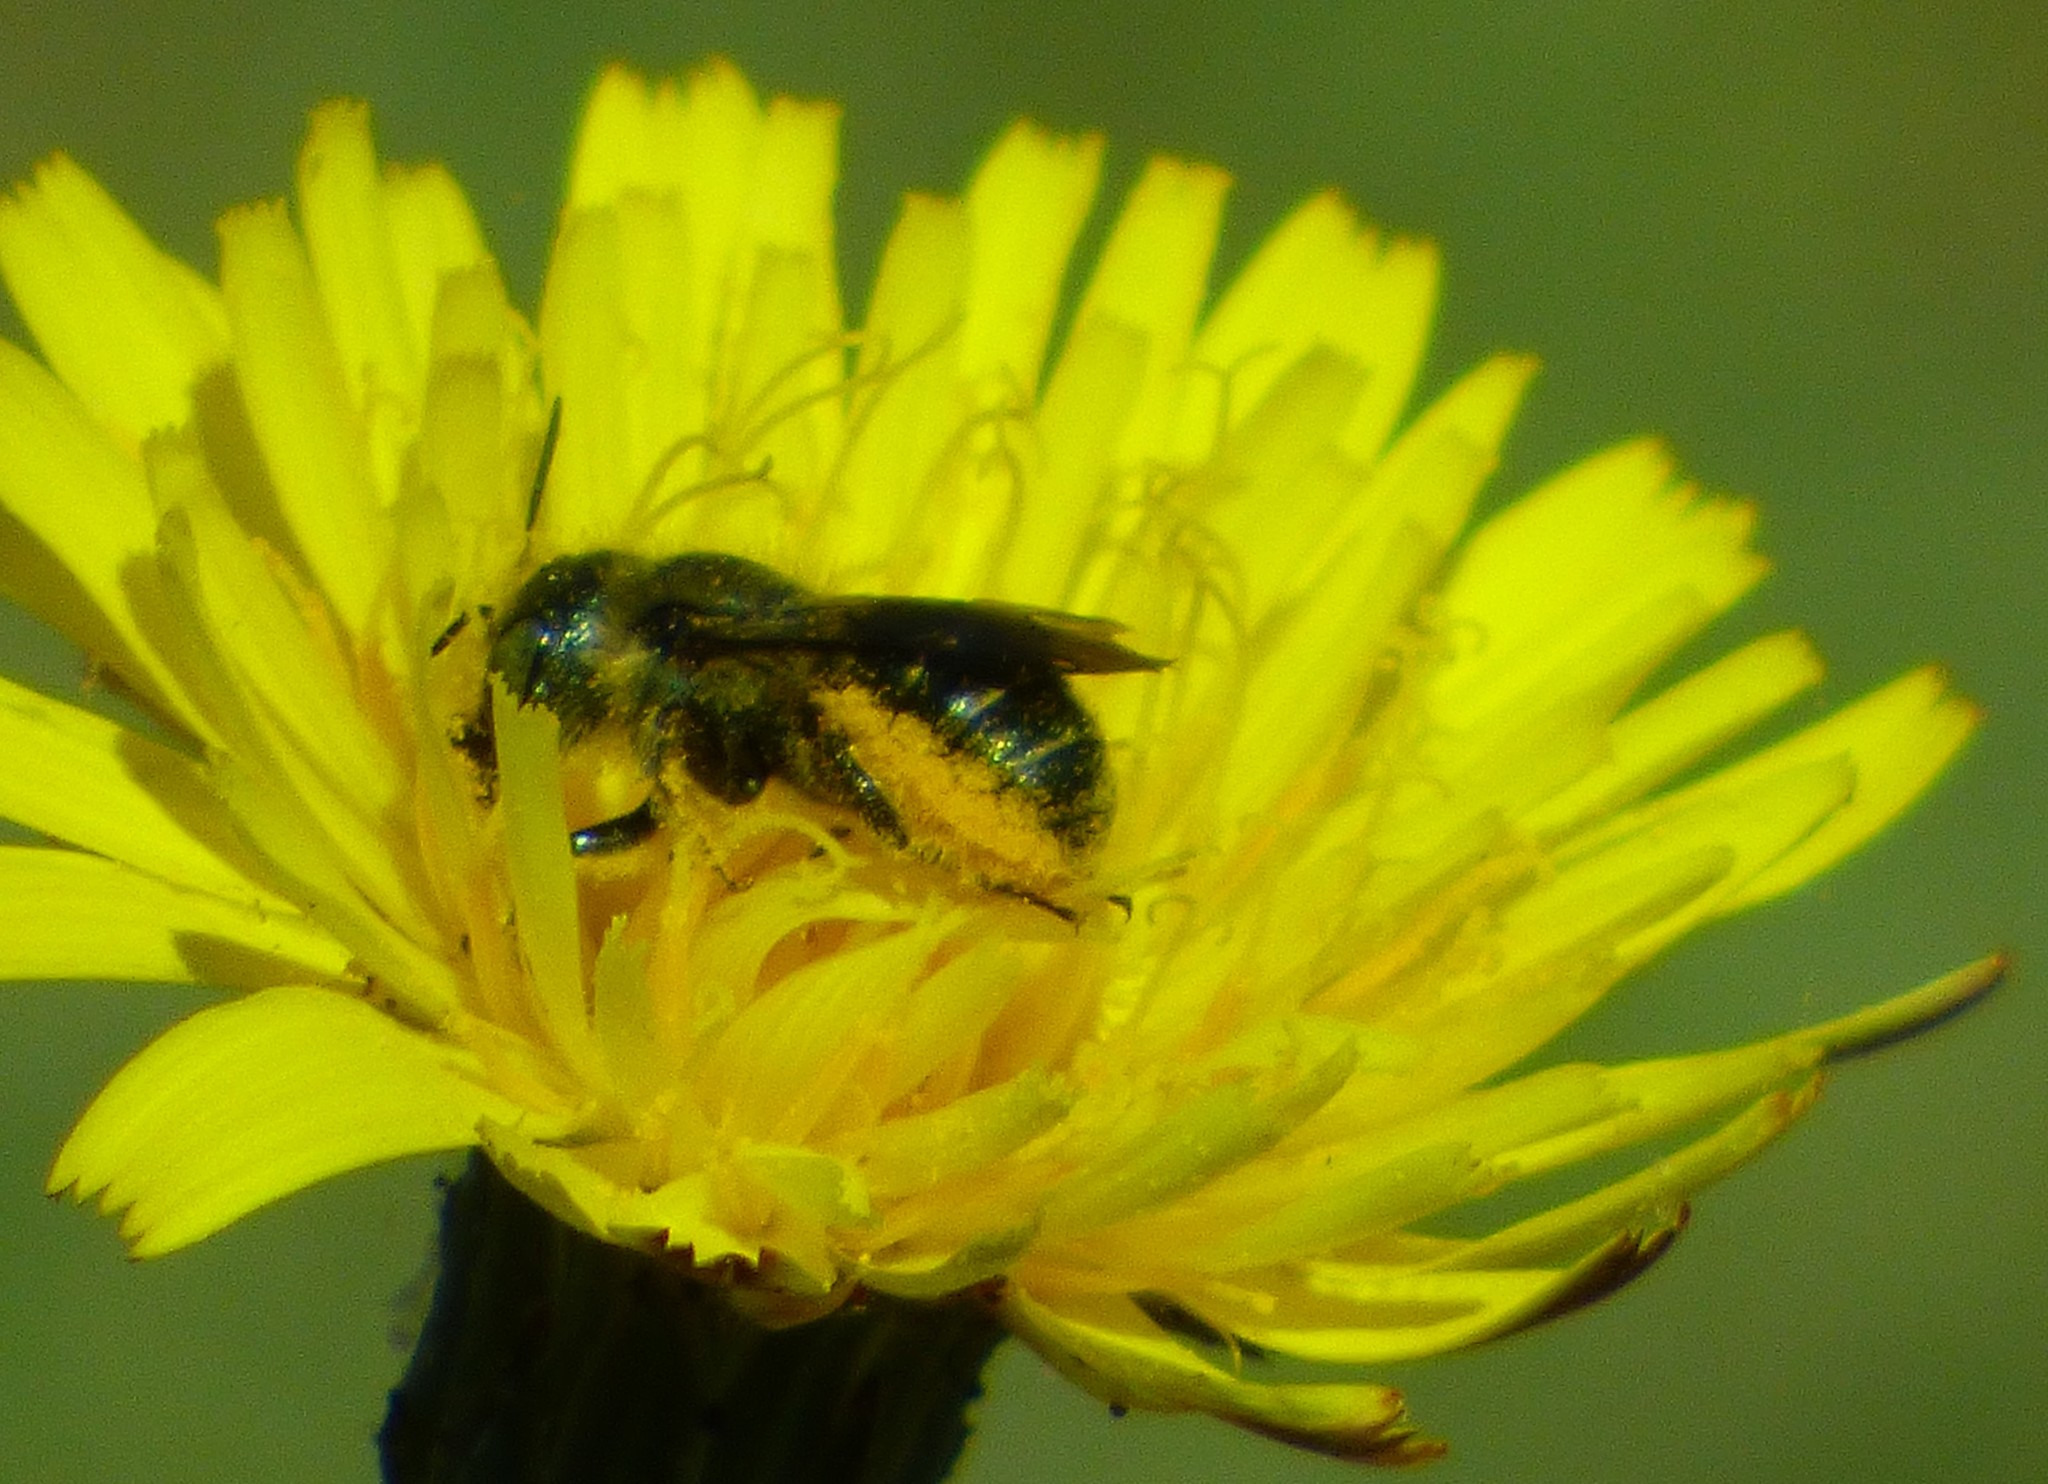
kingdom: Animalia
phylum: Arthropoda
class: Insecta
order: Hymenoptera
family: Megachilidae
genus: Osmia
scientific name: Osmia georgica
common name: Georgia mason
